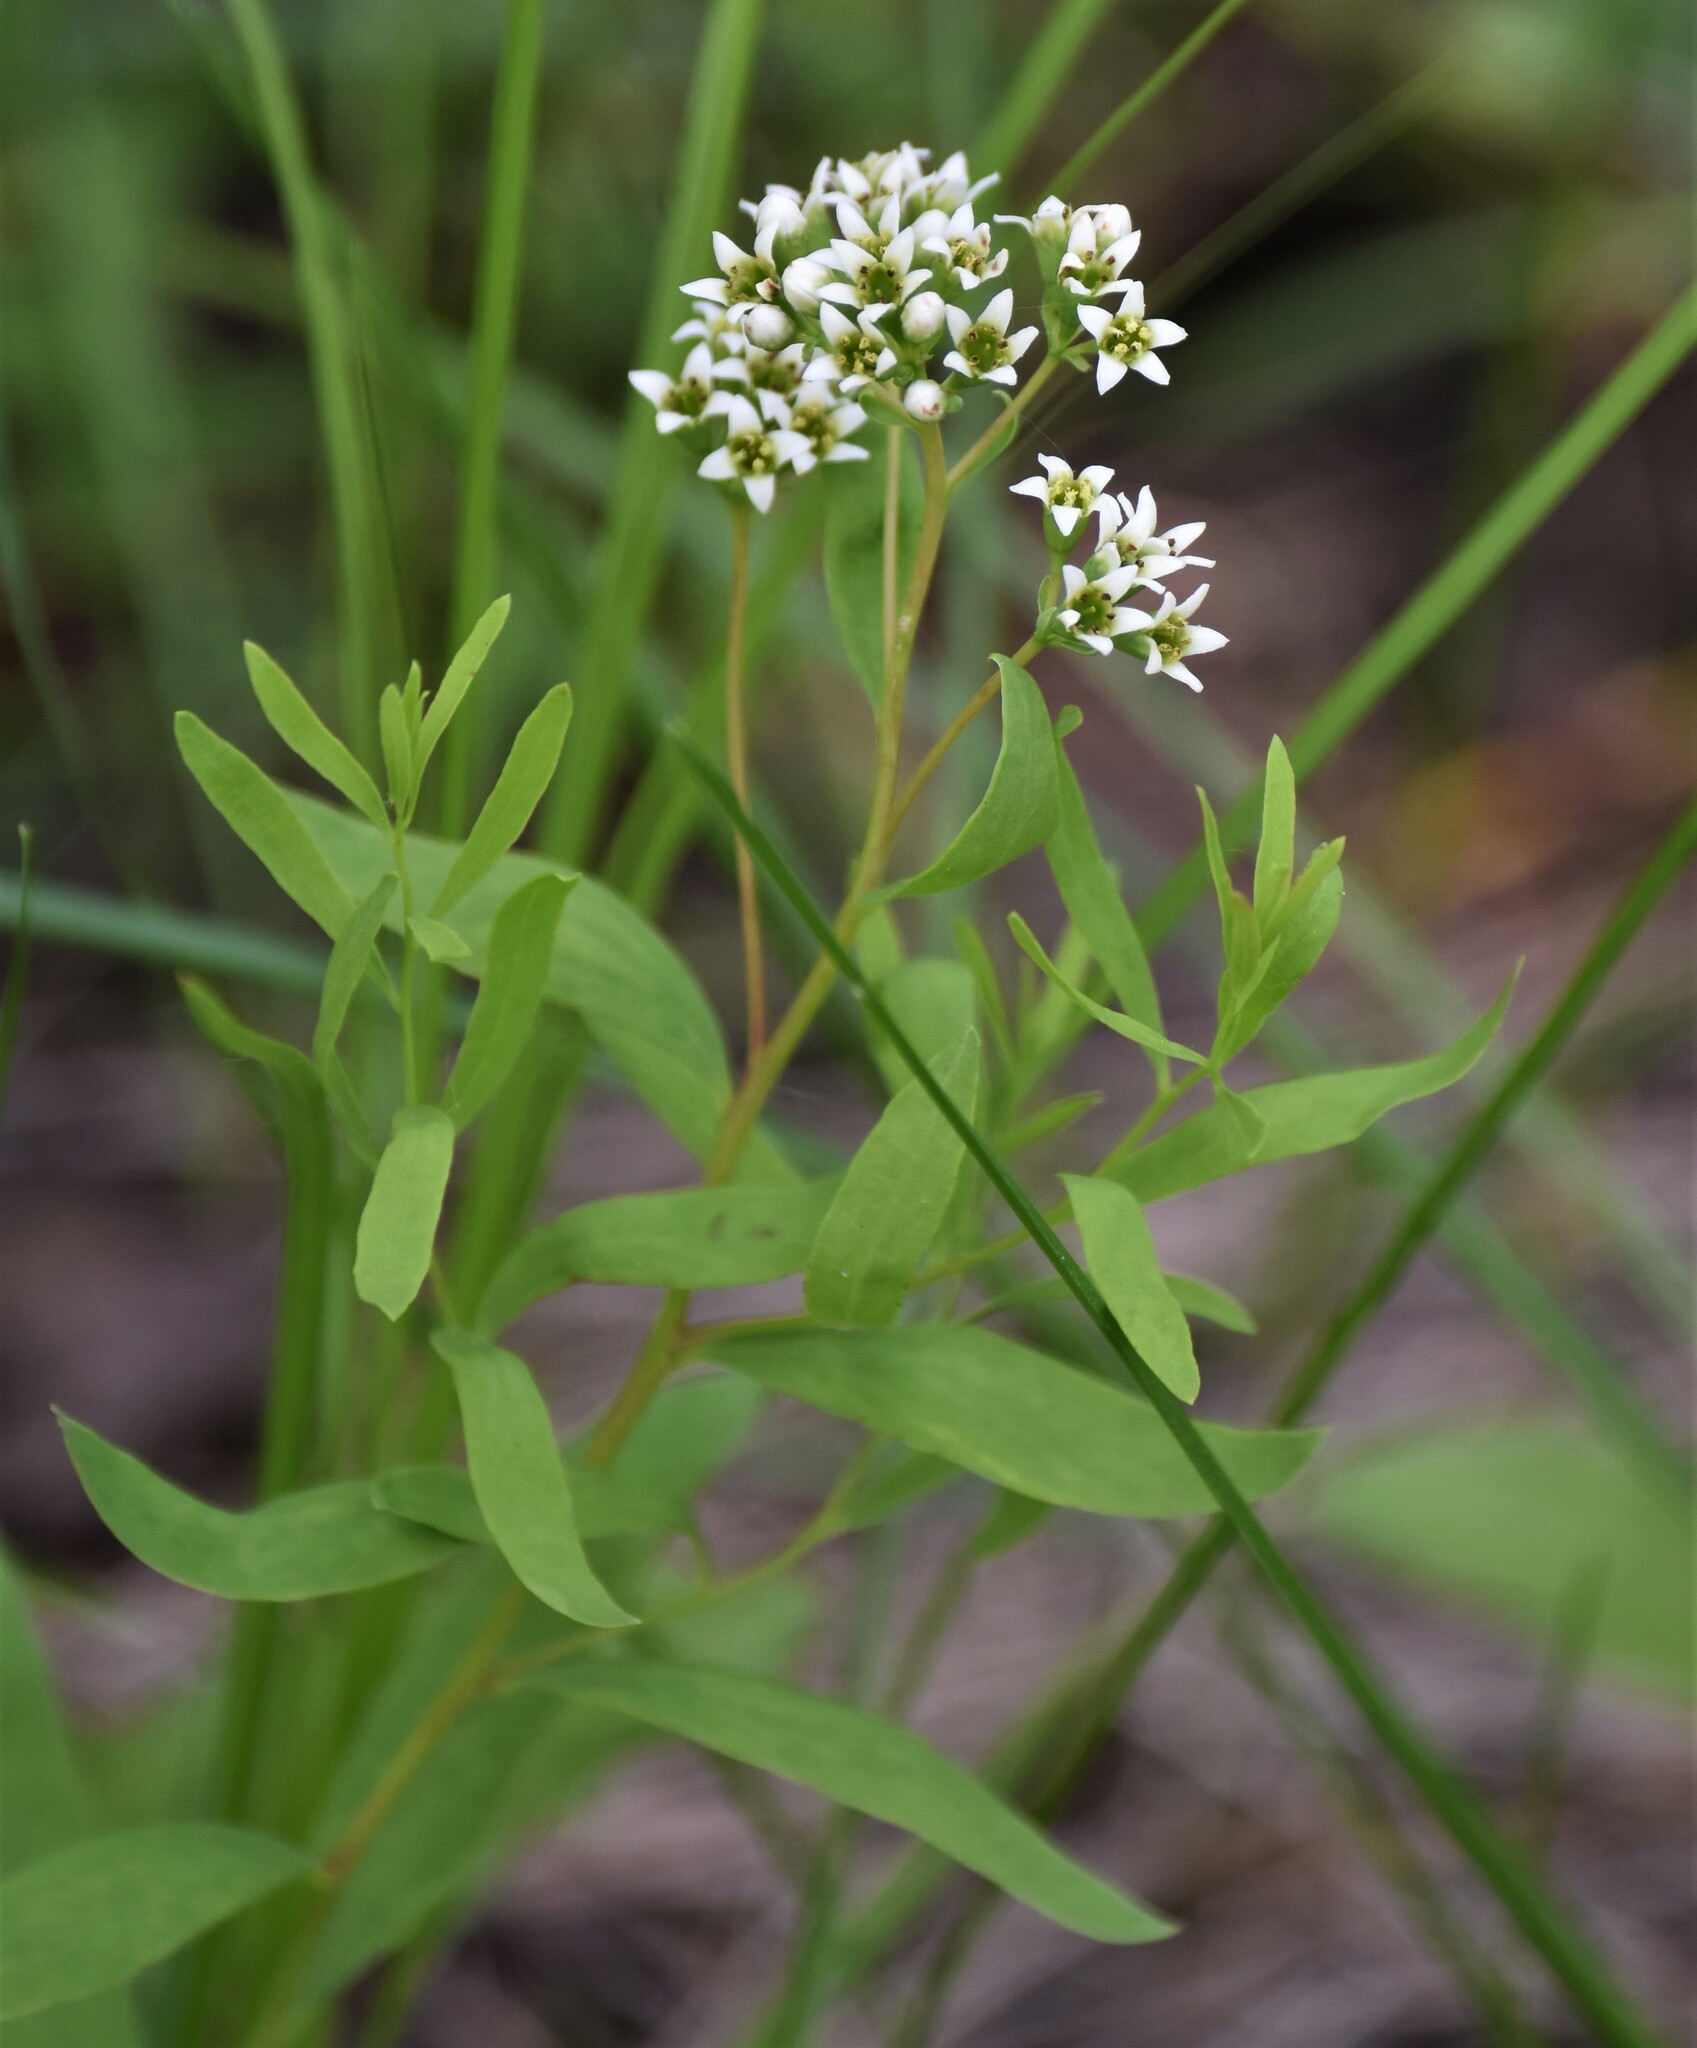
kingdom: Plantae
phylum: Tracheophyta
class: Magnoliopsida
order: Santalales
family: Comandraceae
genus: Comandra
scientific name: Comandra umbellata
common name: Bastard toadflax
